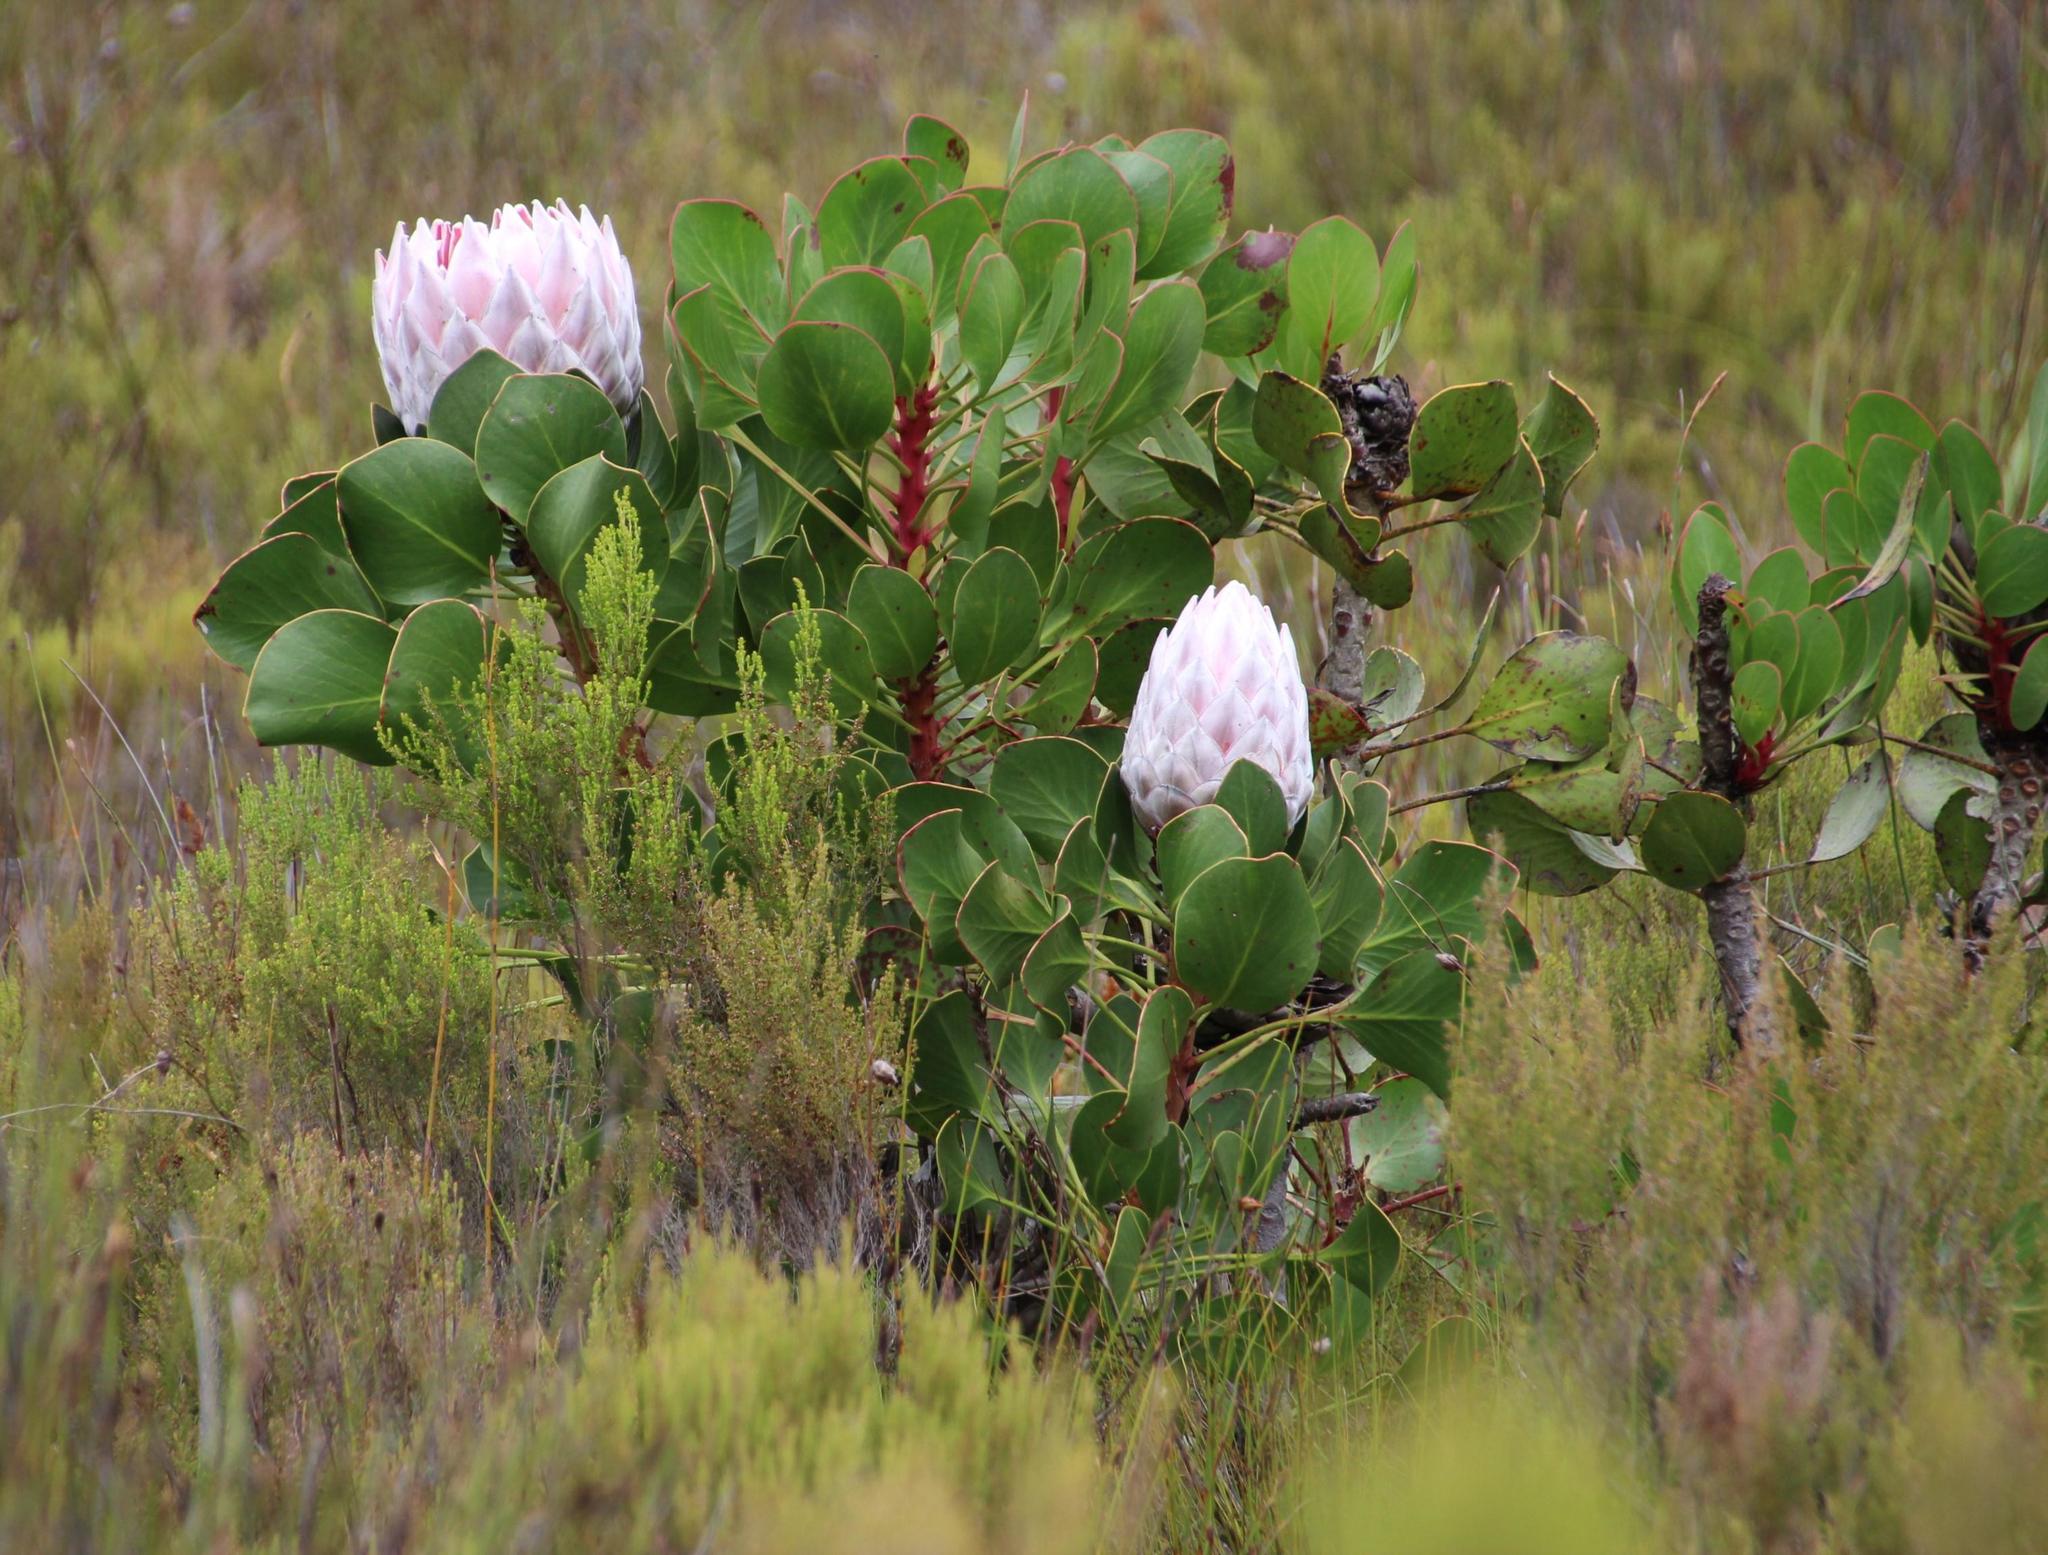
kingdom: Plantae
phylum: Tracheophyta
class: Magnoliopsida
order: Proteales
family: Proteaceae
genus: Protea
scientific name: Protea cynaroides
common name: King protea
